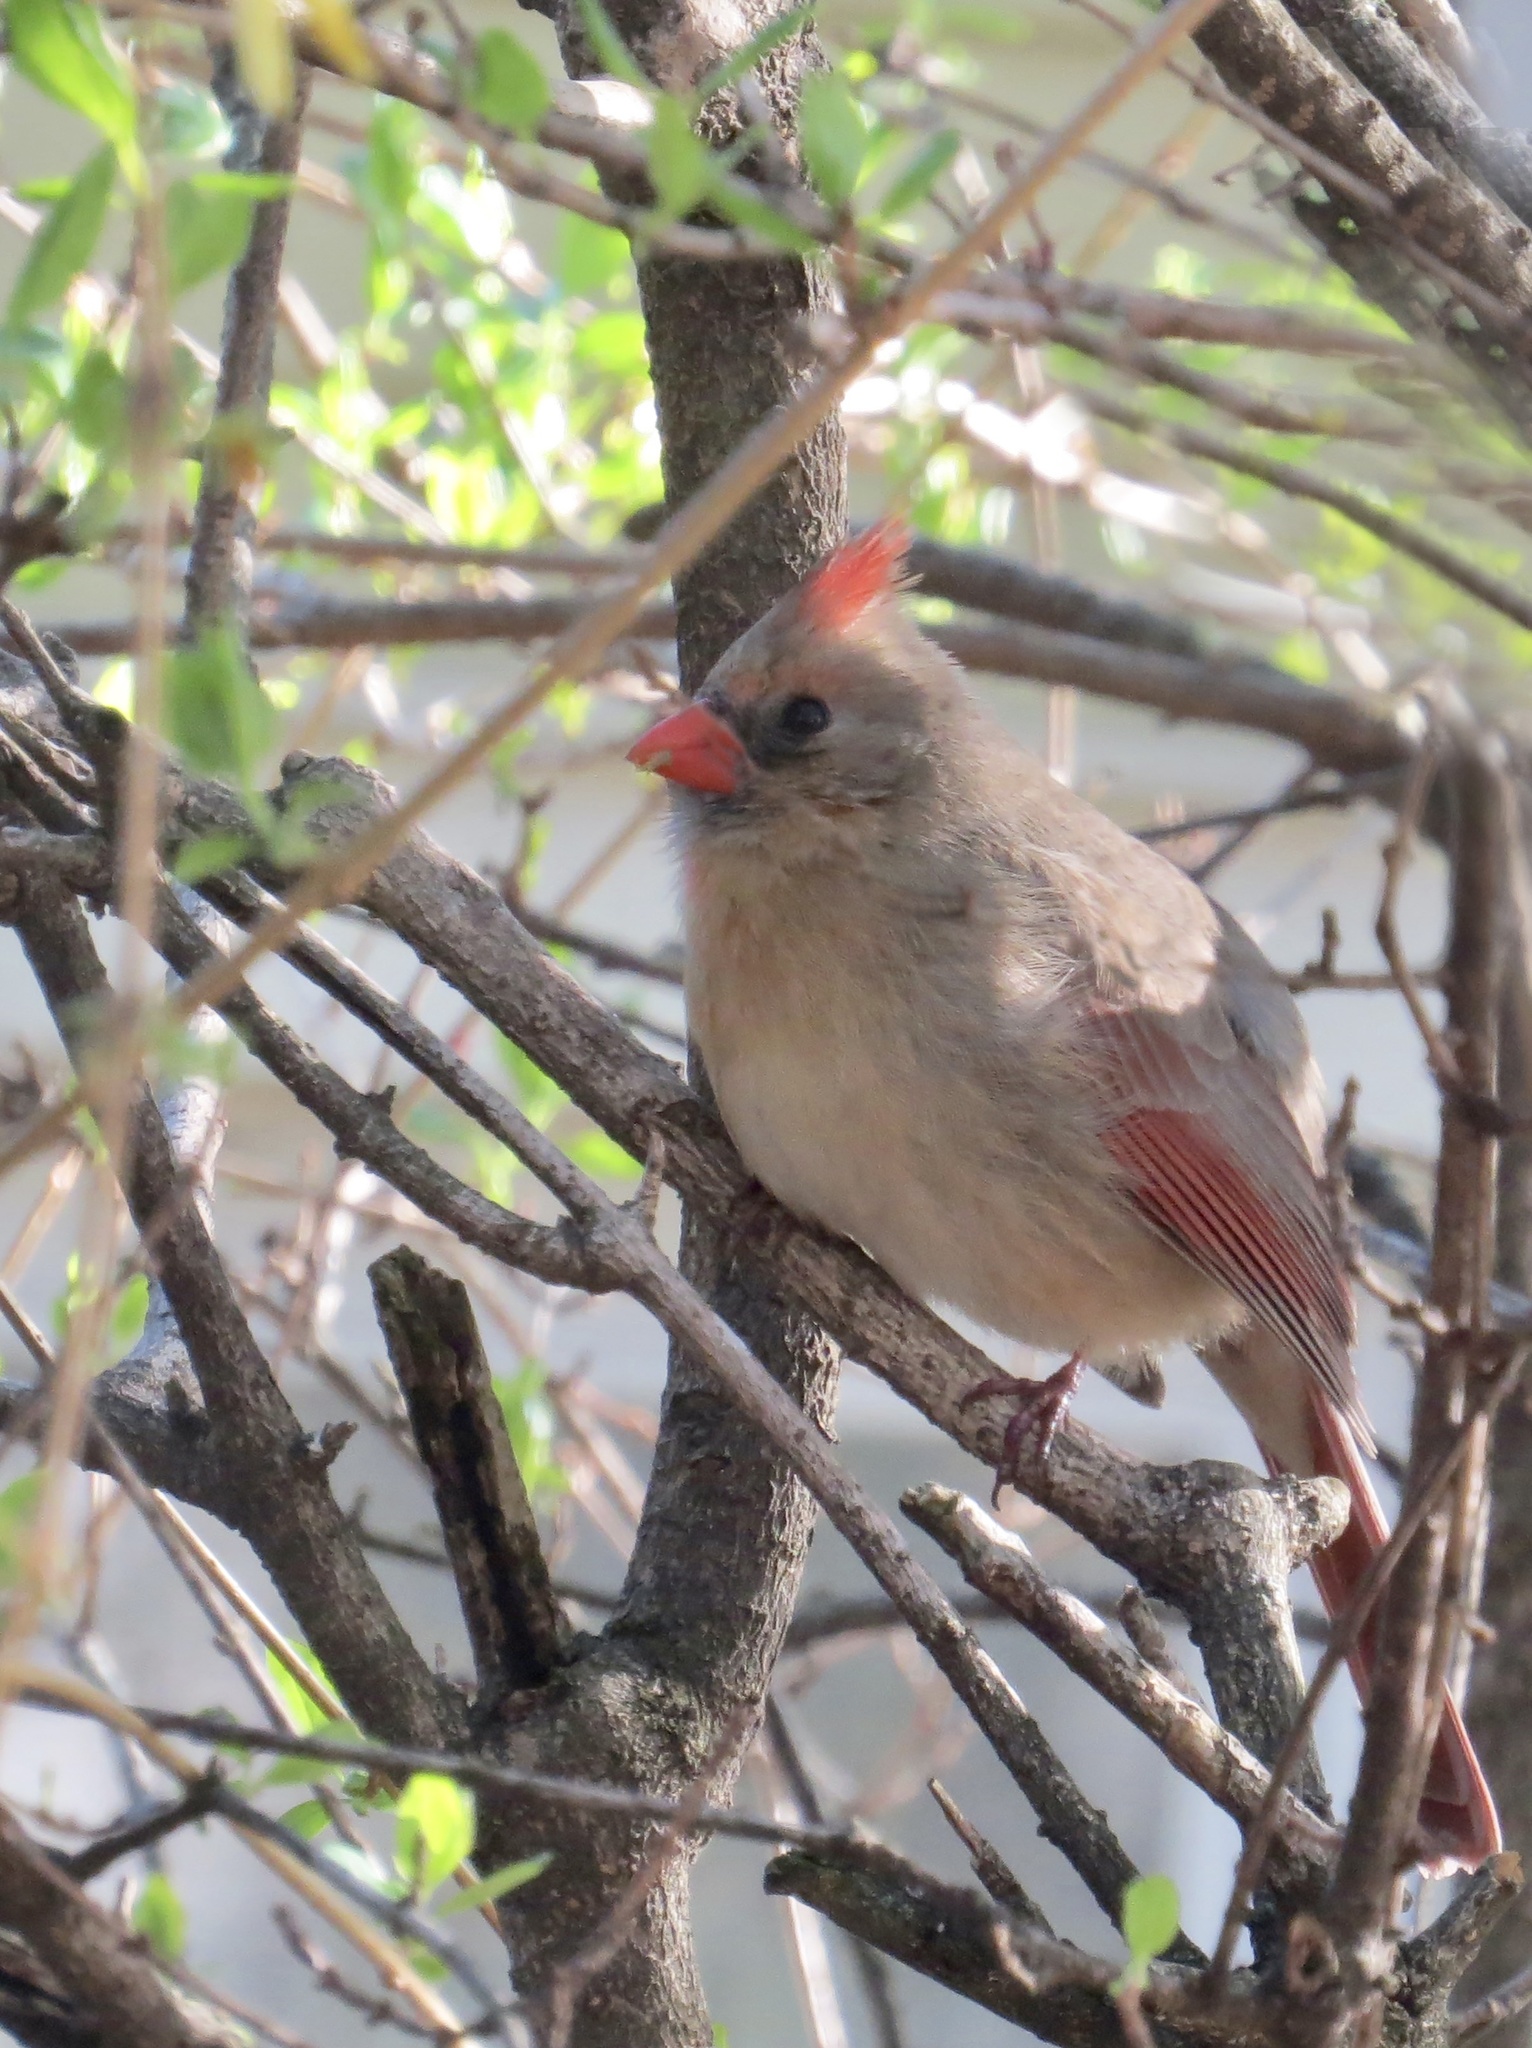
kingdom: Animalia
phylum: Chordata
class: Aves
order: Passeriformes
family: Cardinalidae
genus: Cardinalis
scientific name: Cardinalis cardinalis
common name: Northern cardinal
